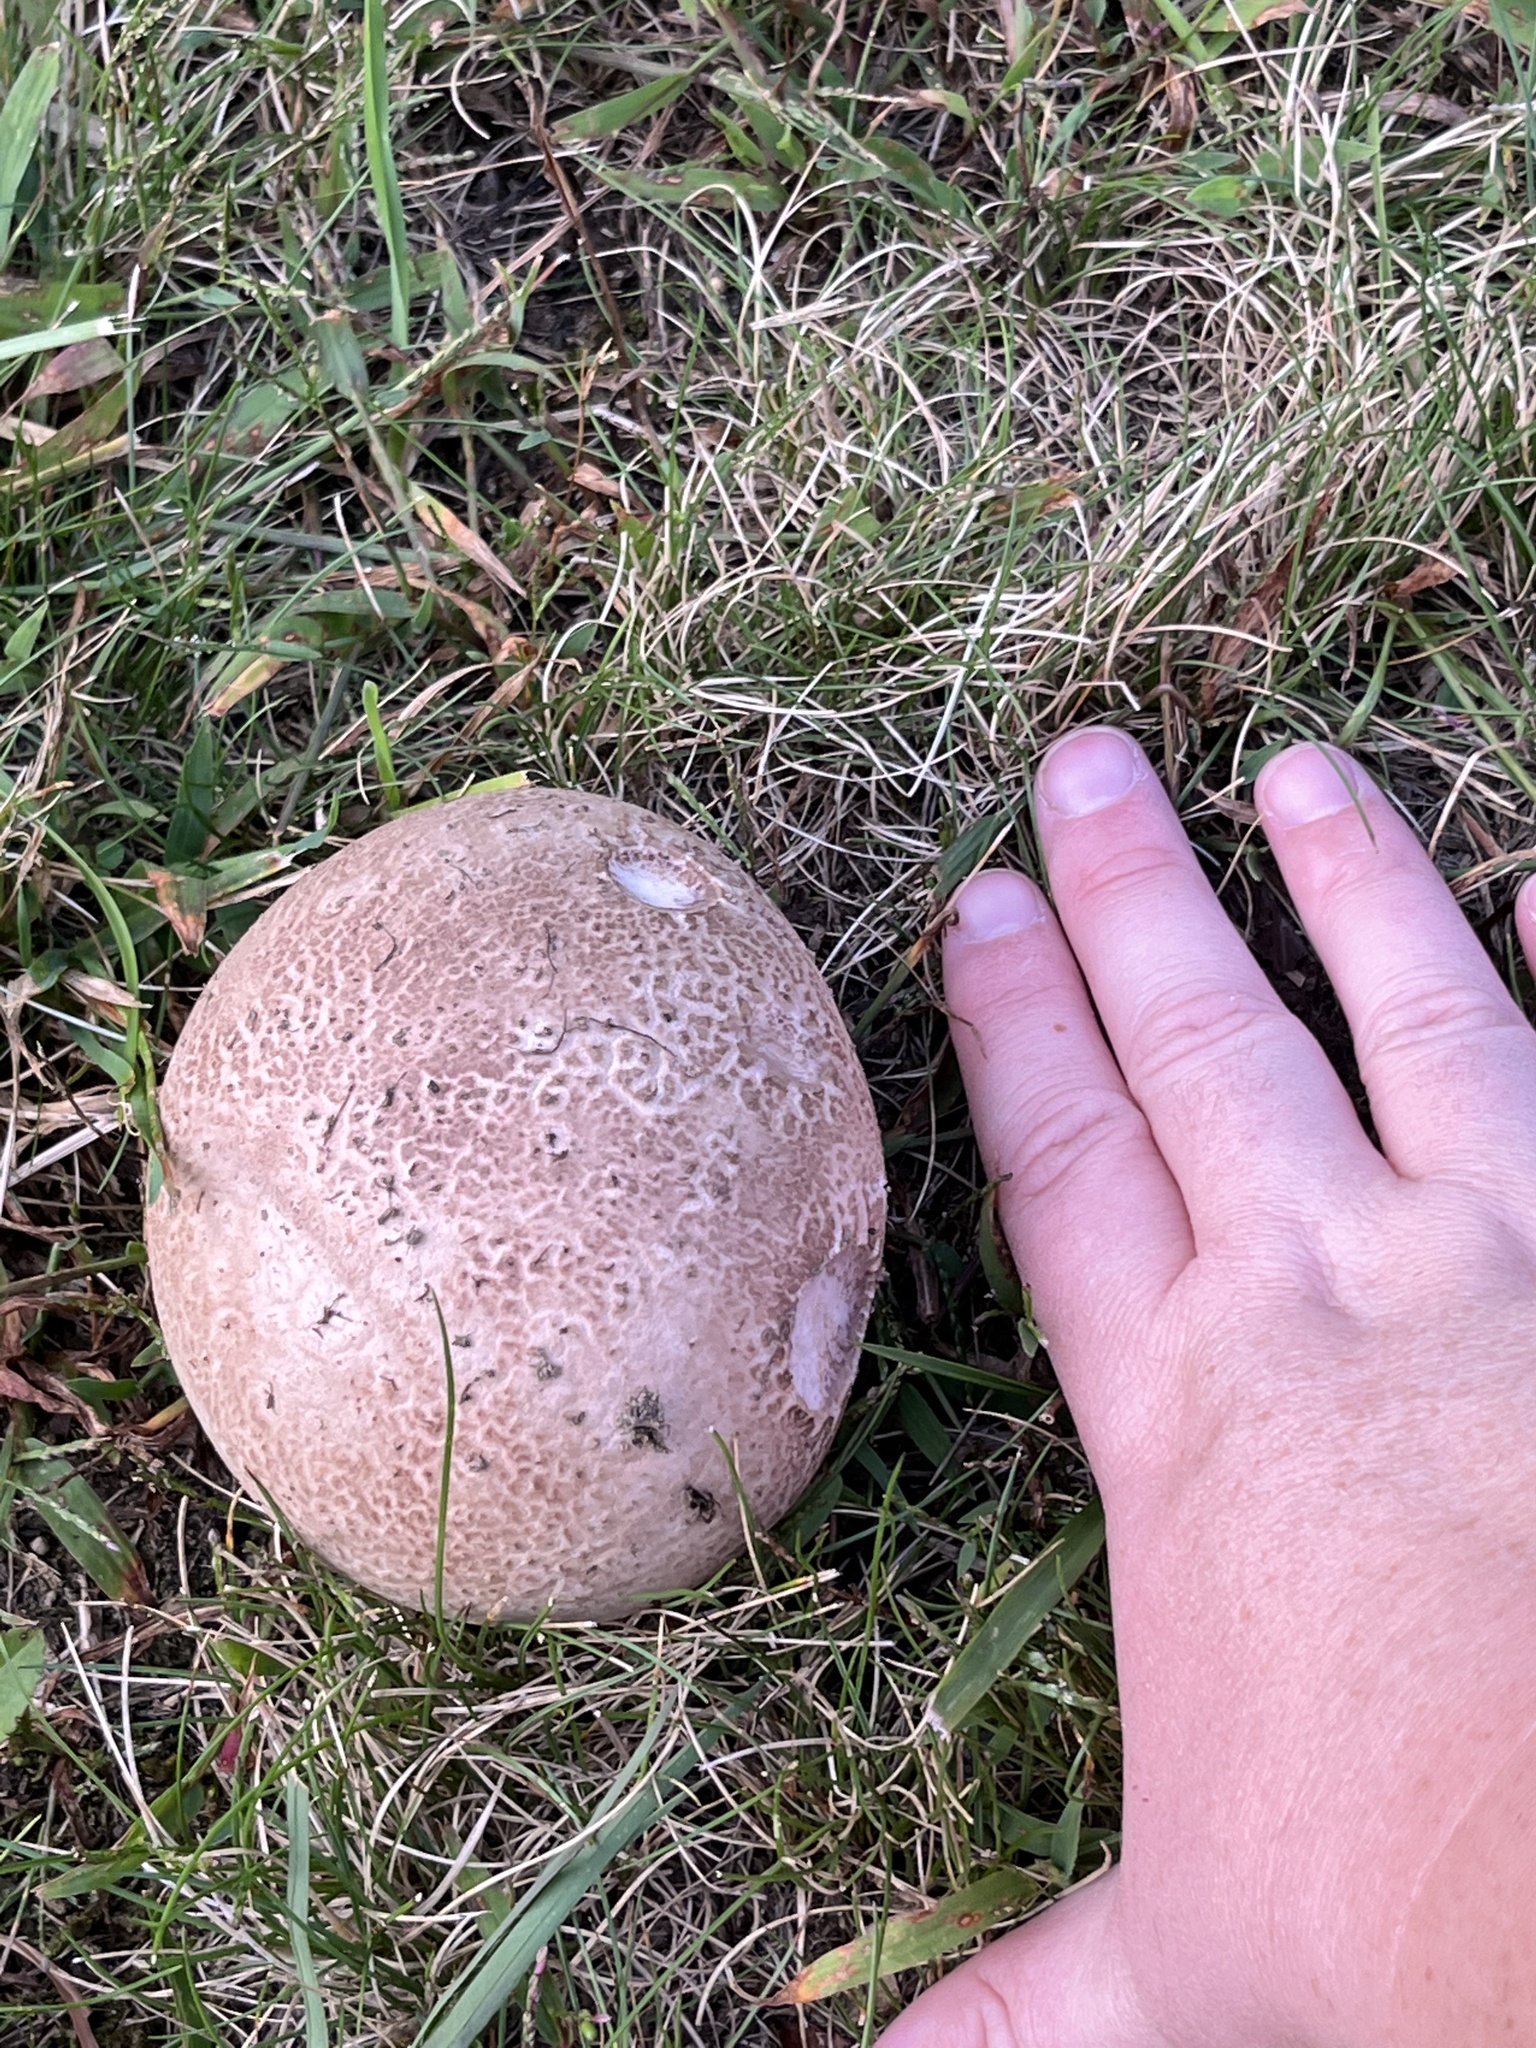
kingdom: Fungi
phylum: Basidiomycota
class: Agaricomycetes
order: Agaricales
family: Lycoperdaceae
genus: Calvatia
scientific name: Calvatia cyathiformis
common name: Purple-spored puffball
